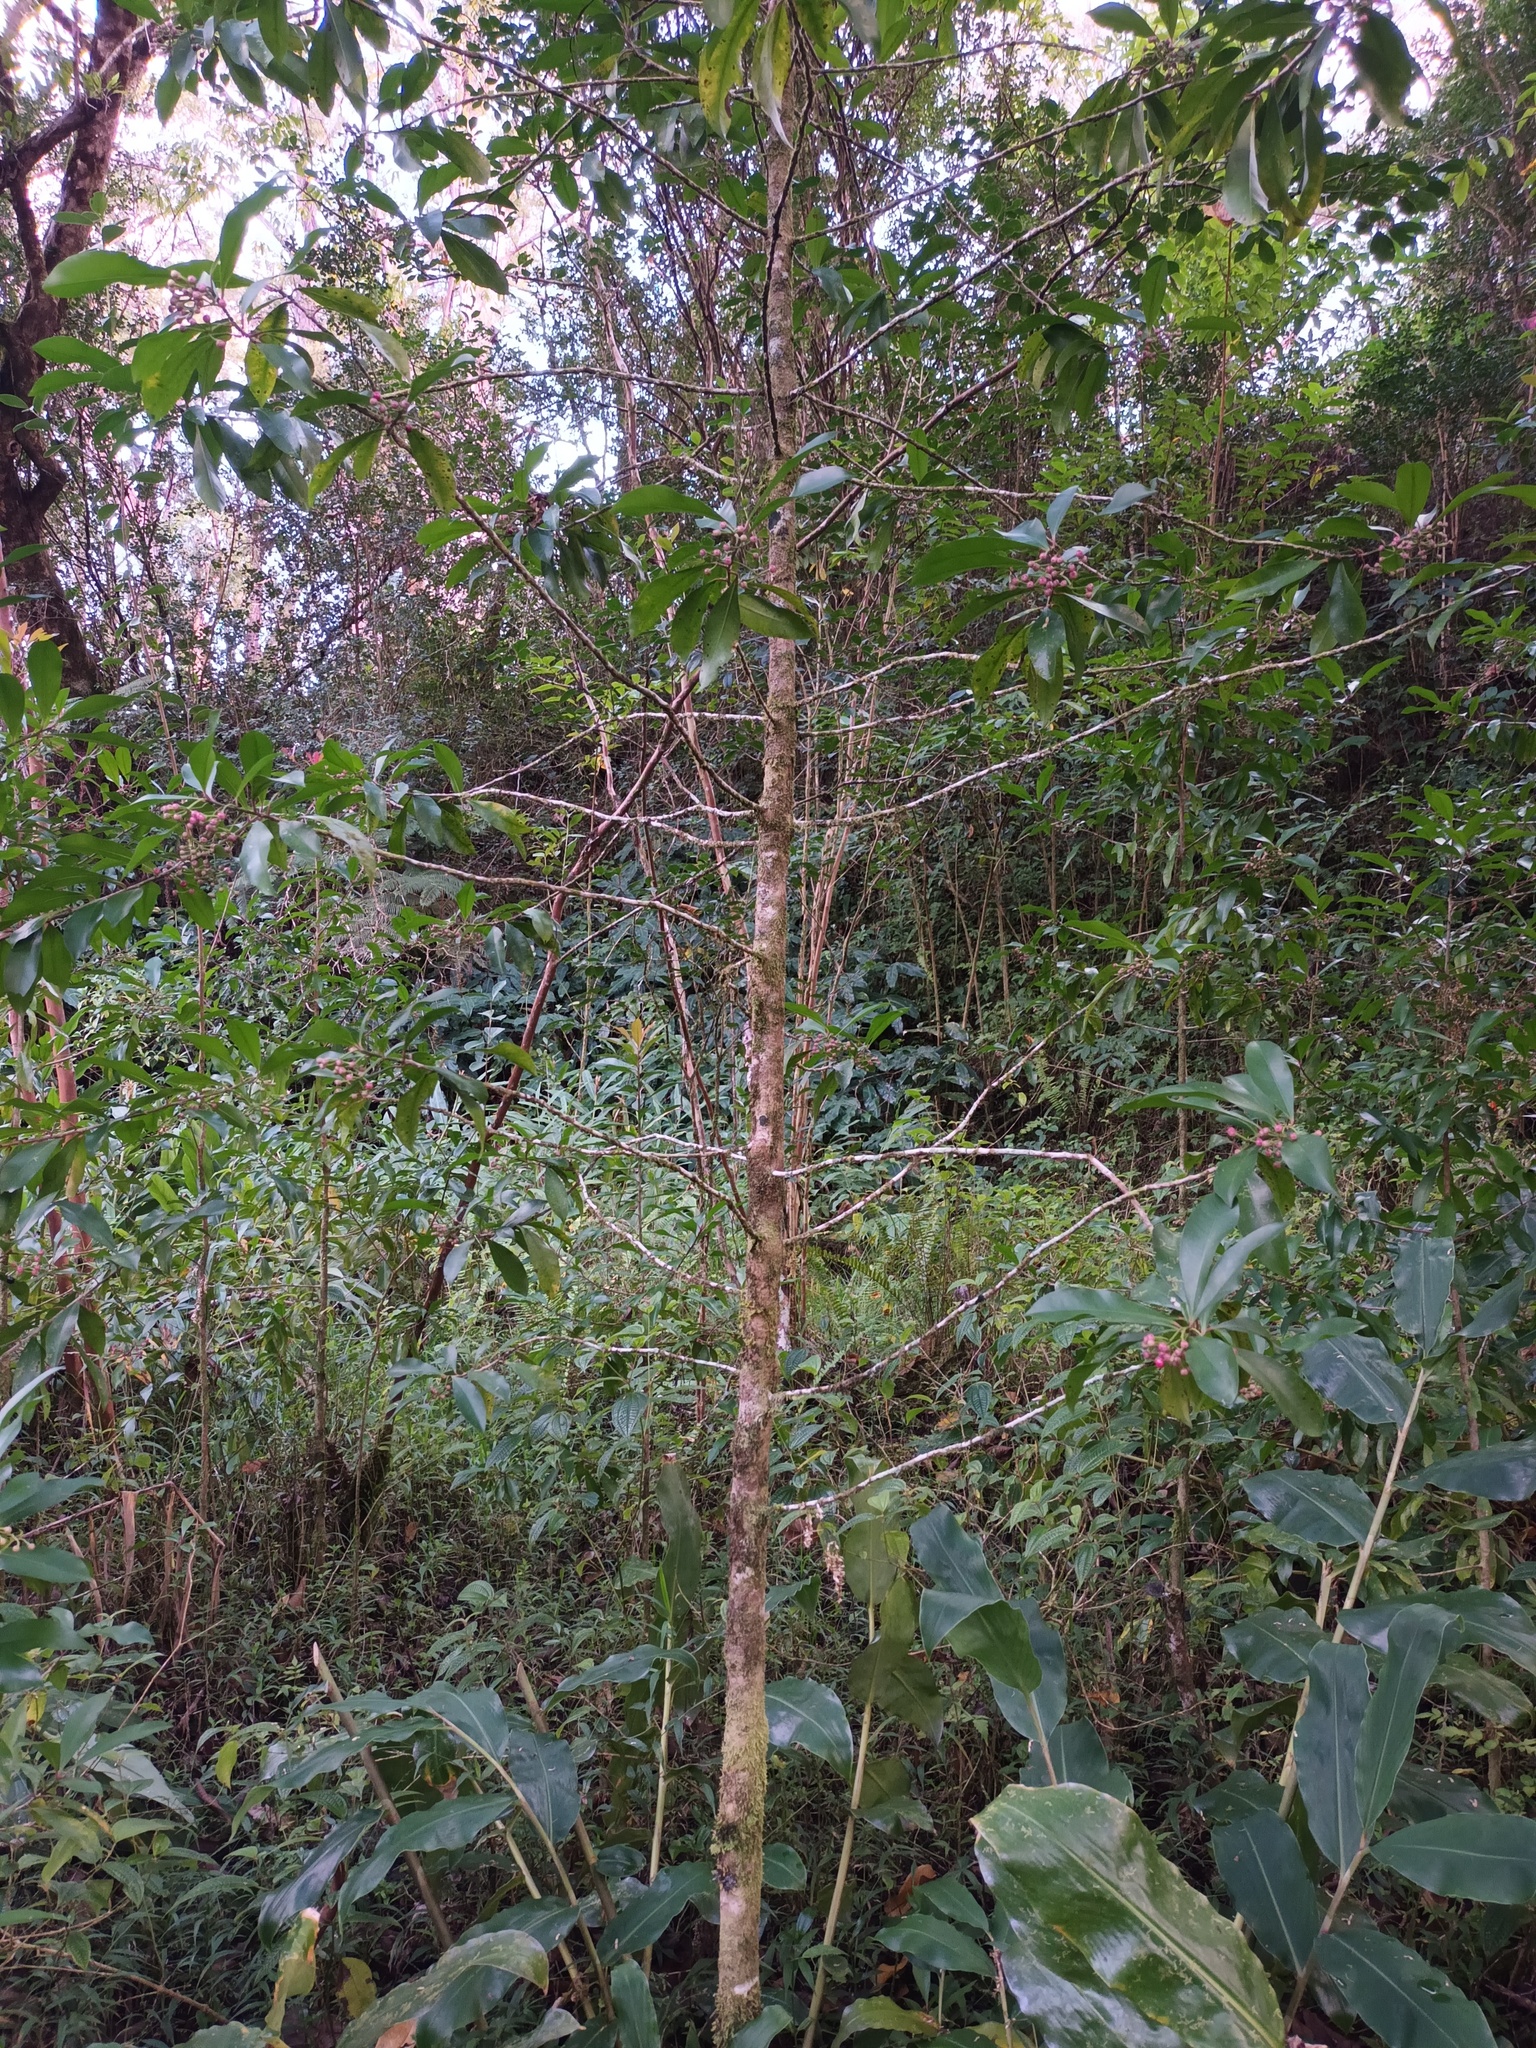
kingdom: Plantae
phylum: Tracheophyta
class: Magnoliopsida
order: Ericales
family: Primulaceae
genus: Ardisia
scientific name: Ardisia elliptica
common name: Shoebutton
